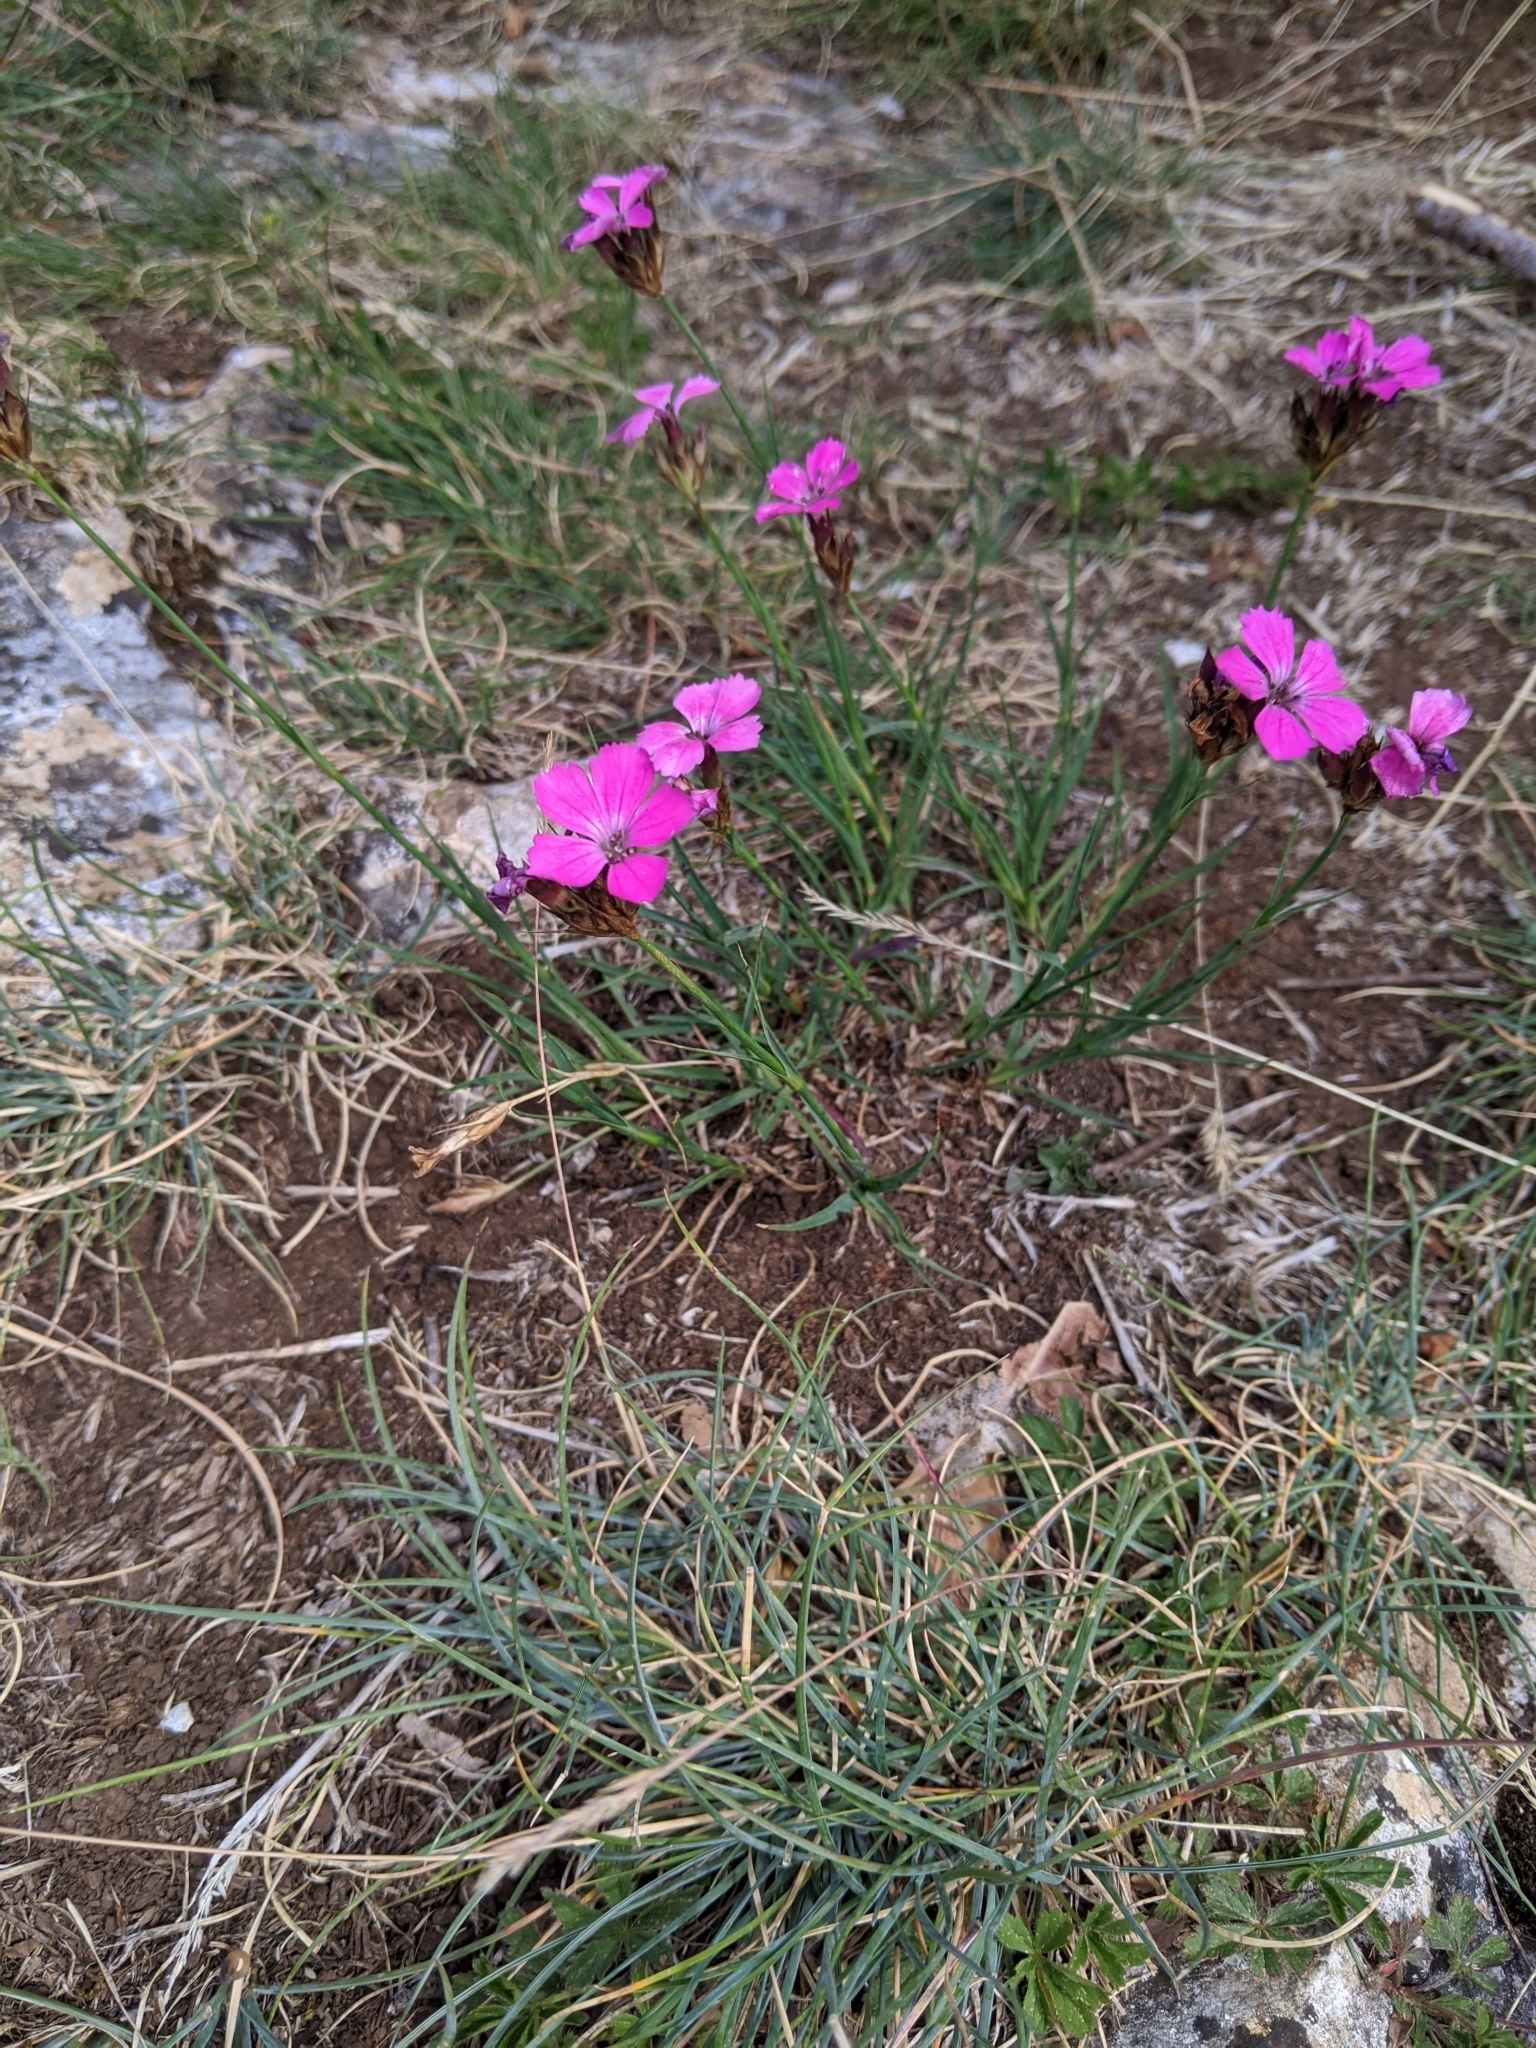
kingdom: Plantae
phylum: Tracheophyta
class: Magnoliopsida
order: Caryophyllales
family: Caryophyllaceae
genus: Dianthus
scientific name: Dianthus carthusianorum
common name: Carthusian pink
